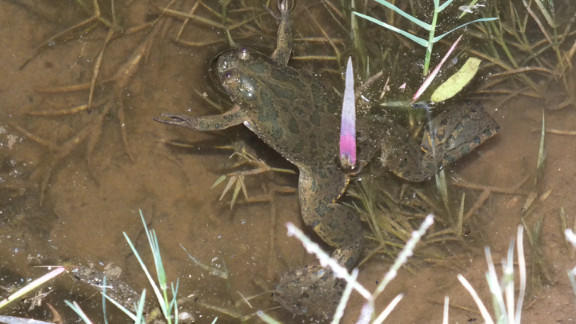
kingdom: Animalia
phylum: Chordata
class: Amphibia
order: Anura
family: Pipidae
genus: Xenopus
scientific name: Xenopus muelleri
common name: Muller's clawed frog
